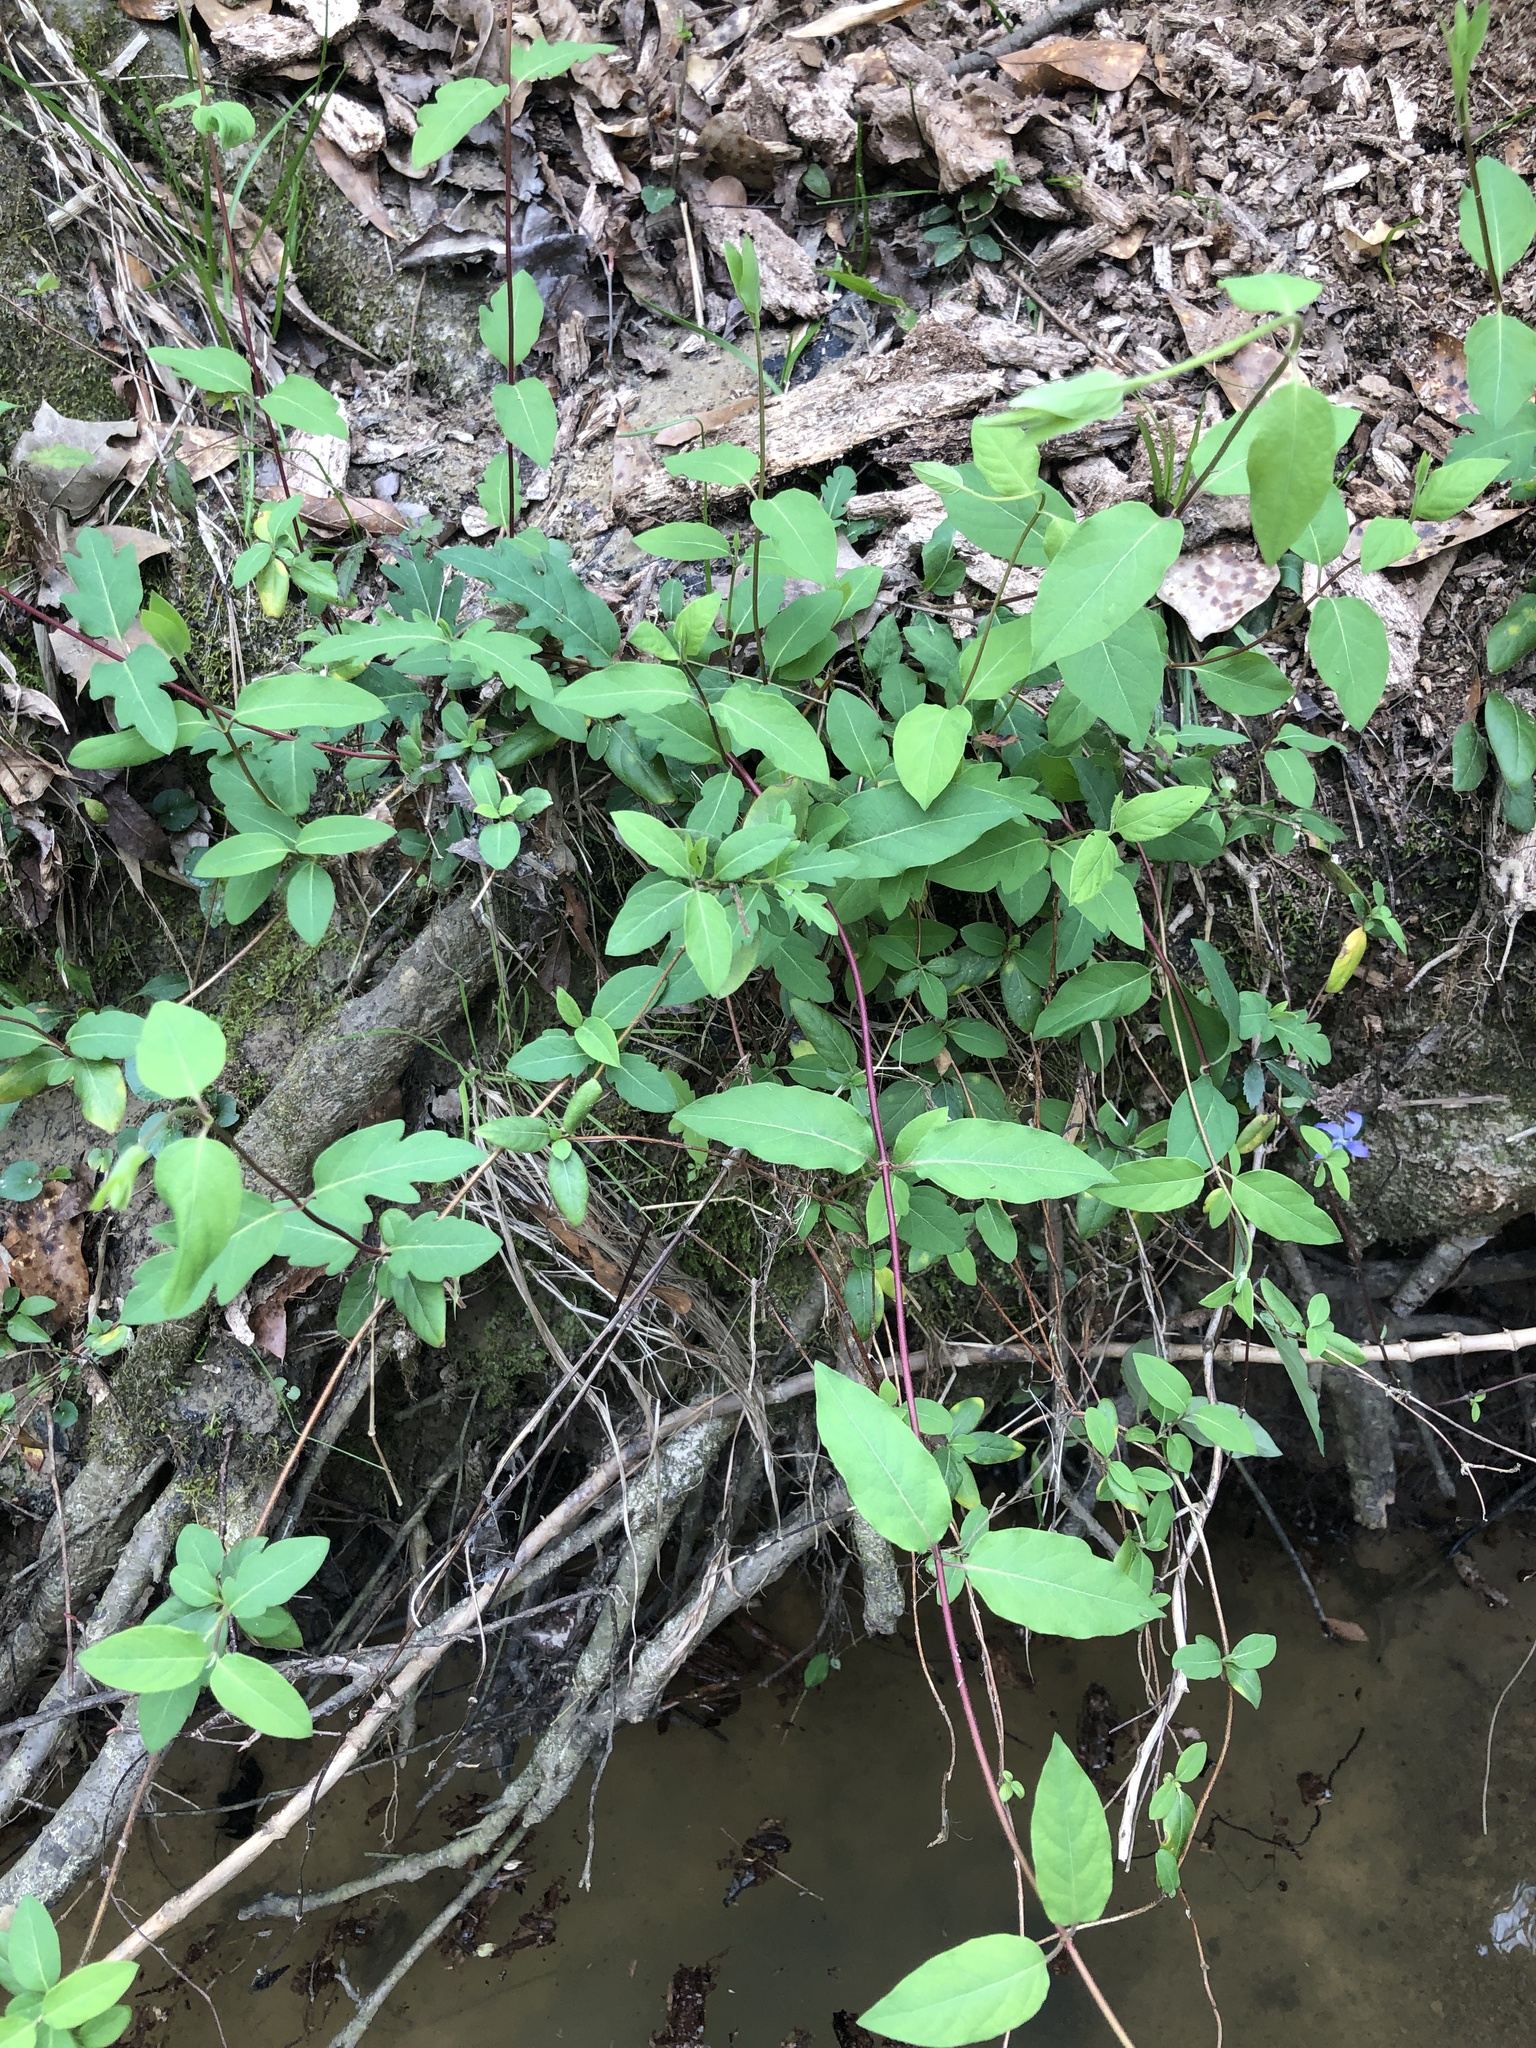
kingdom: Plantae
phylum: Tracheophyta
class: Magnoliopsida
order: Dipsacales
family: Caprifoliaceae
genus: Lonicera
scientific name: Lonicera japonica
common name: Japanese honeysuckle
